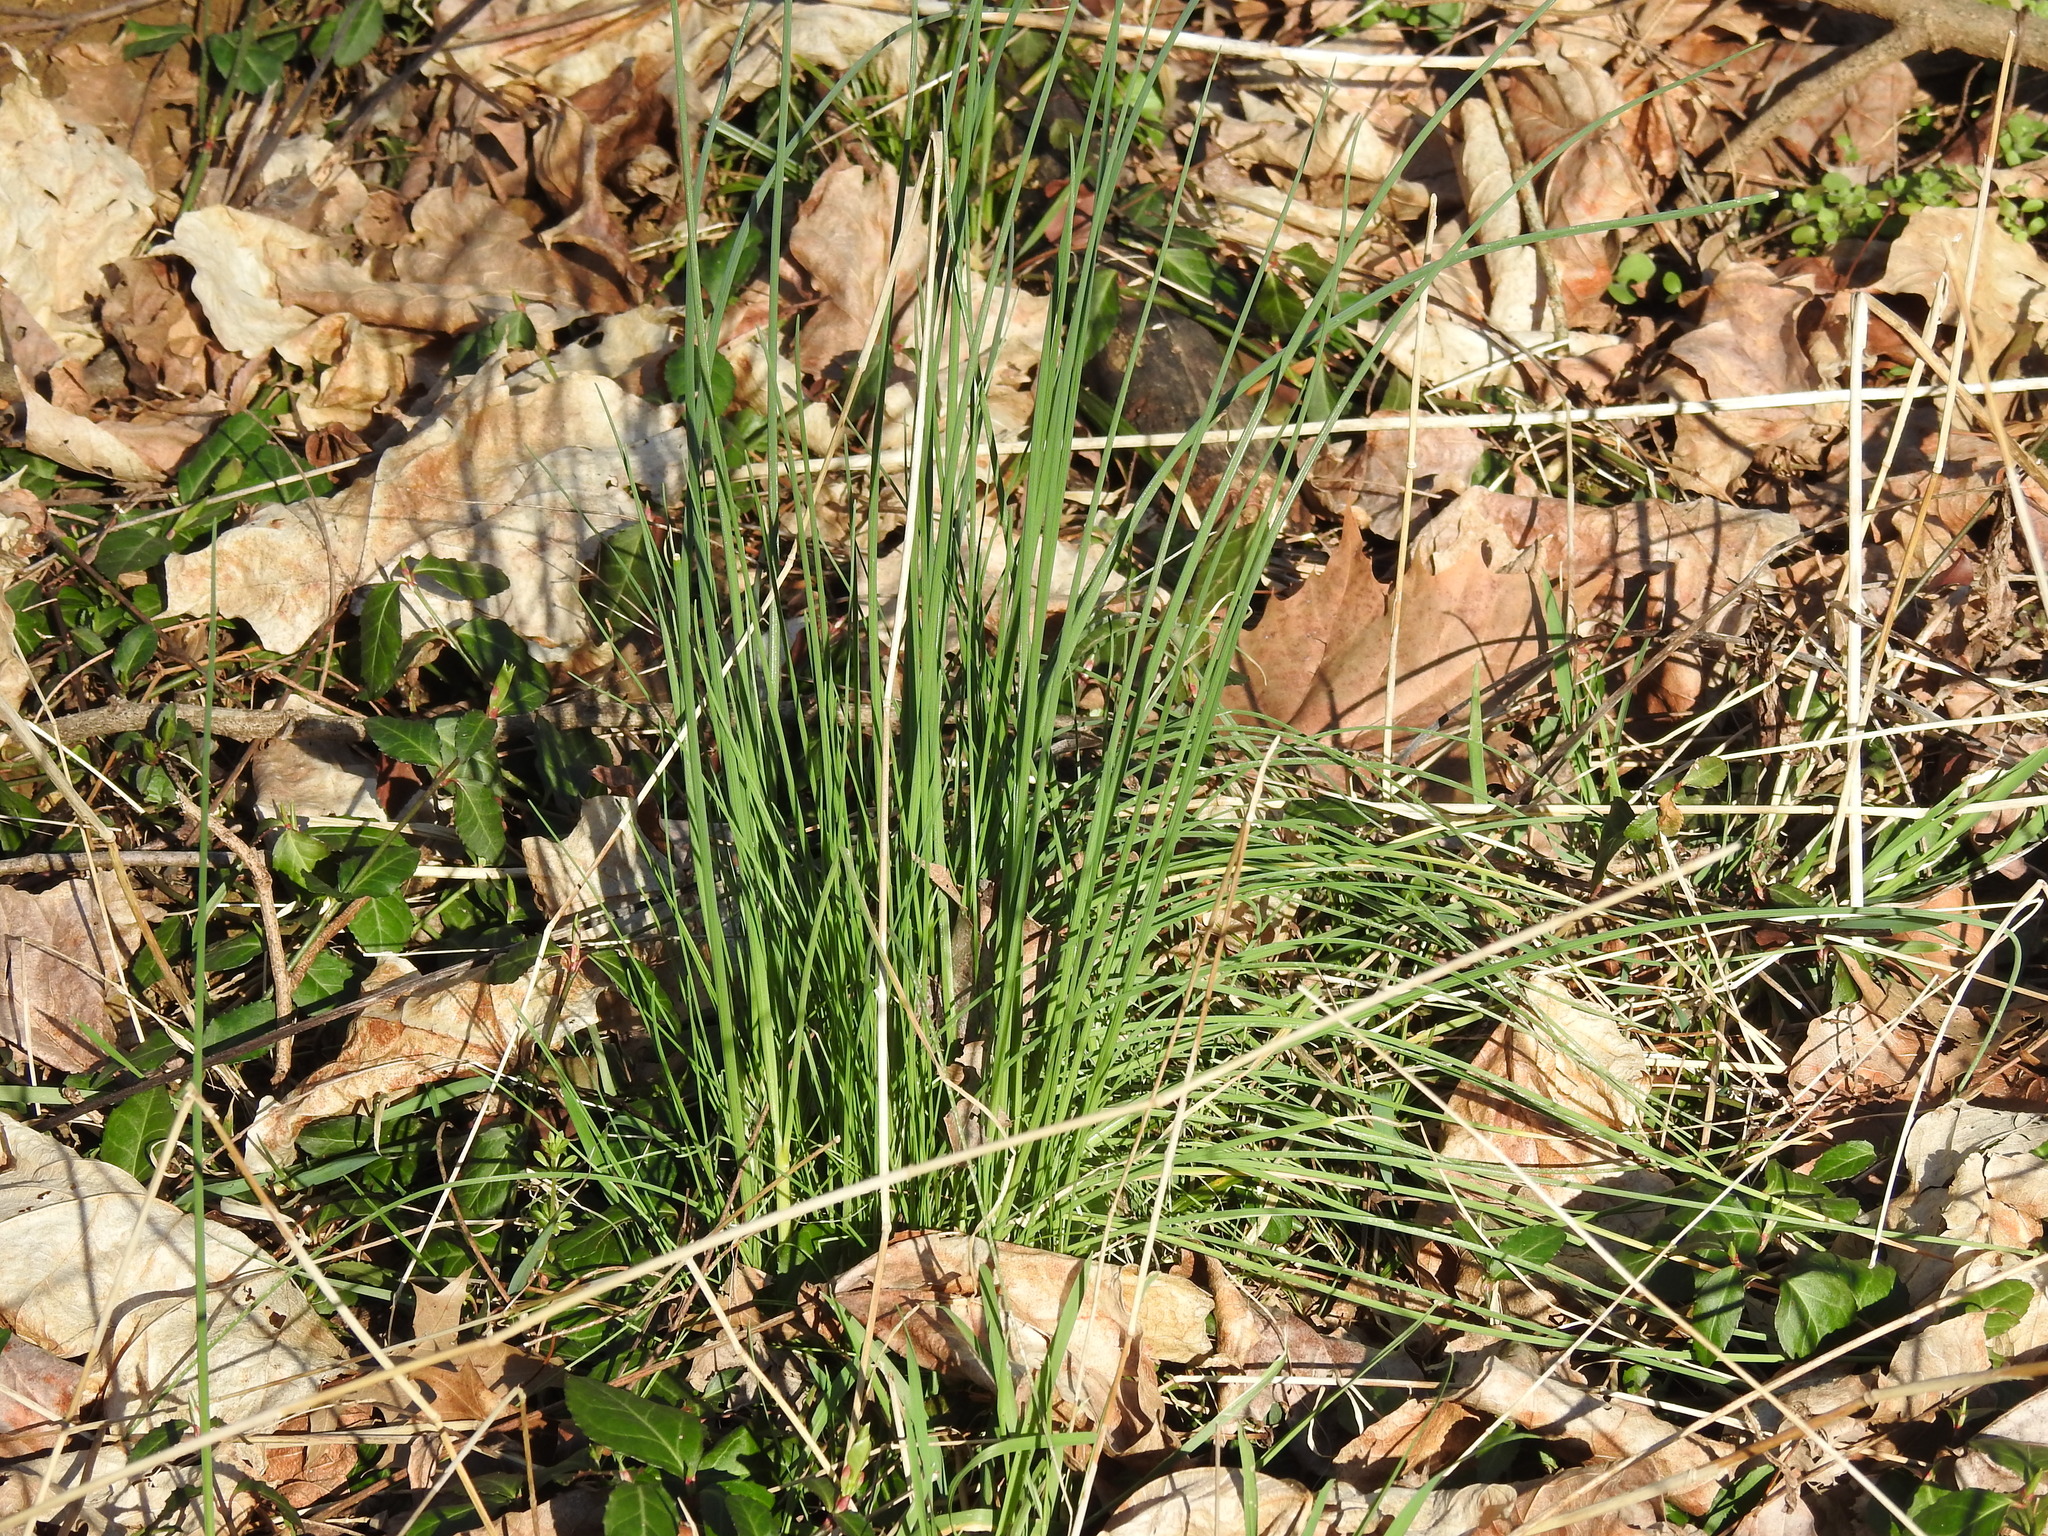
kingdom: Plantae
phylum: Tracheophyta
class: Liliopsida
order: Asparagales
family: Amaryllidaceae
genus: Allium
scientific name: Allium vineale
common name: Crow garlic
